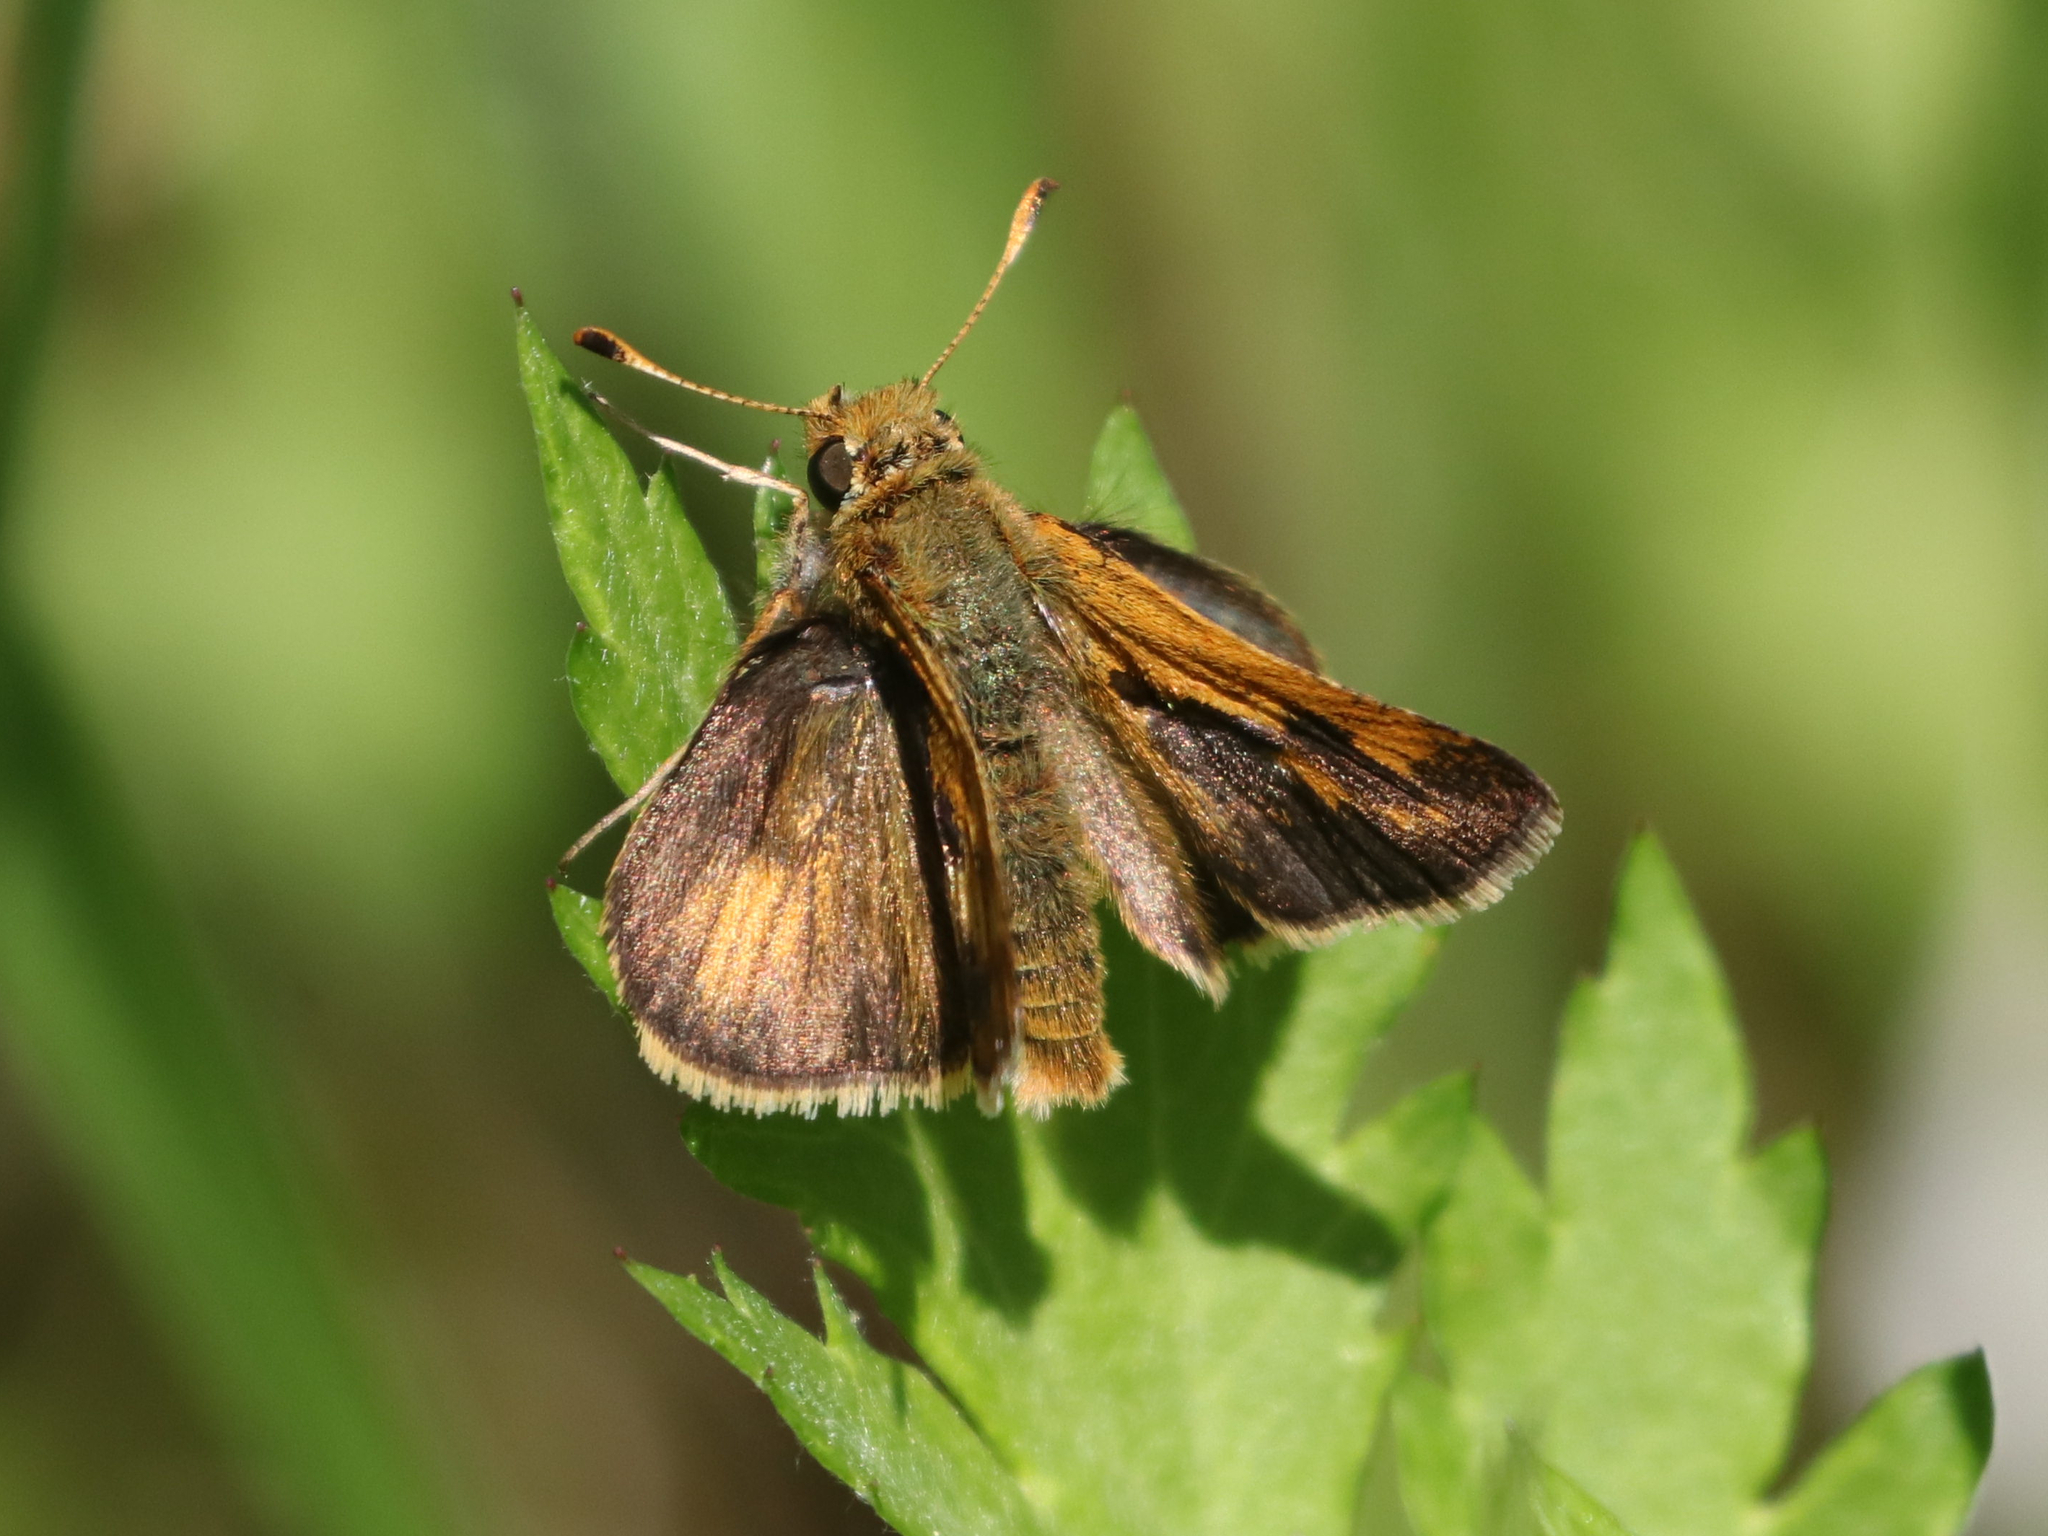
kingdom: Animalia
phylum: Arthropoda
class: Insecta
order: Lepidoptera
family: Hesperiidae
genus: Polites
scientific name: Polites coras
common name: Peck's skipper
